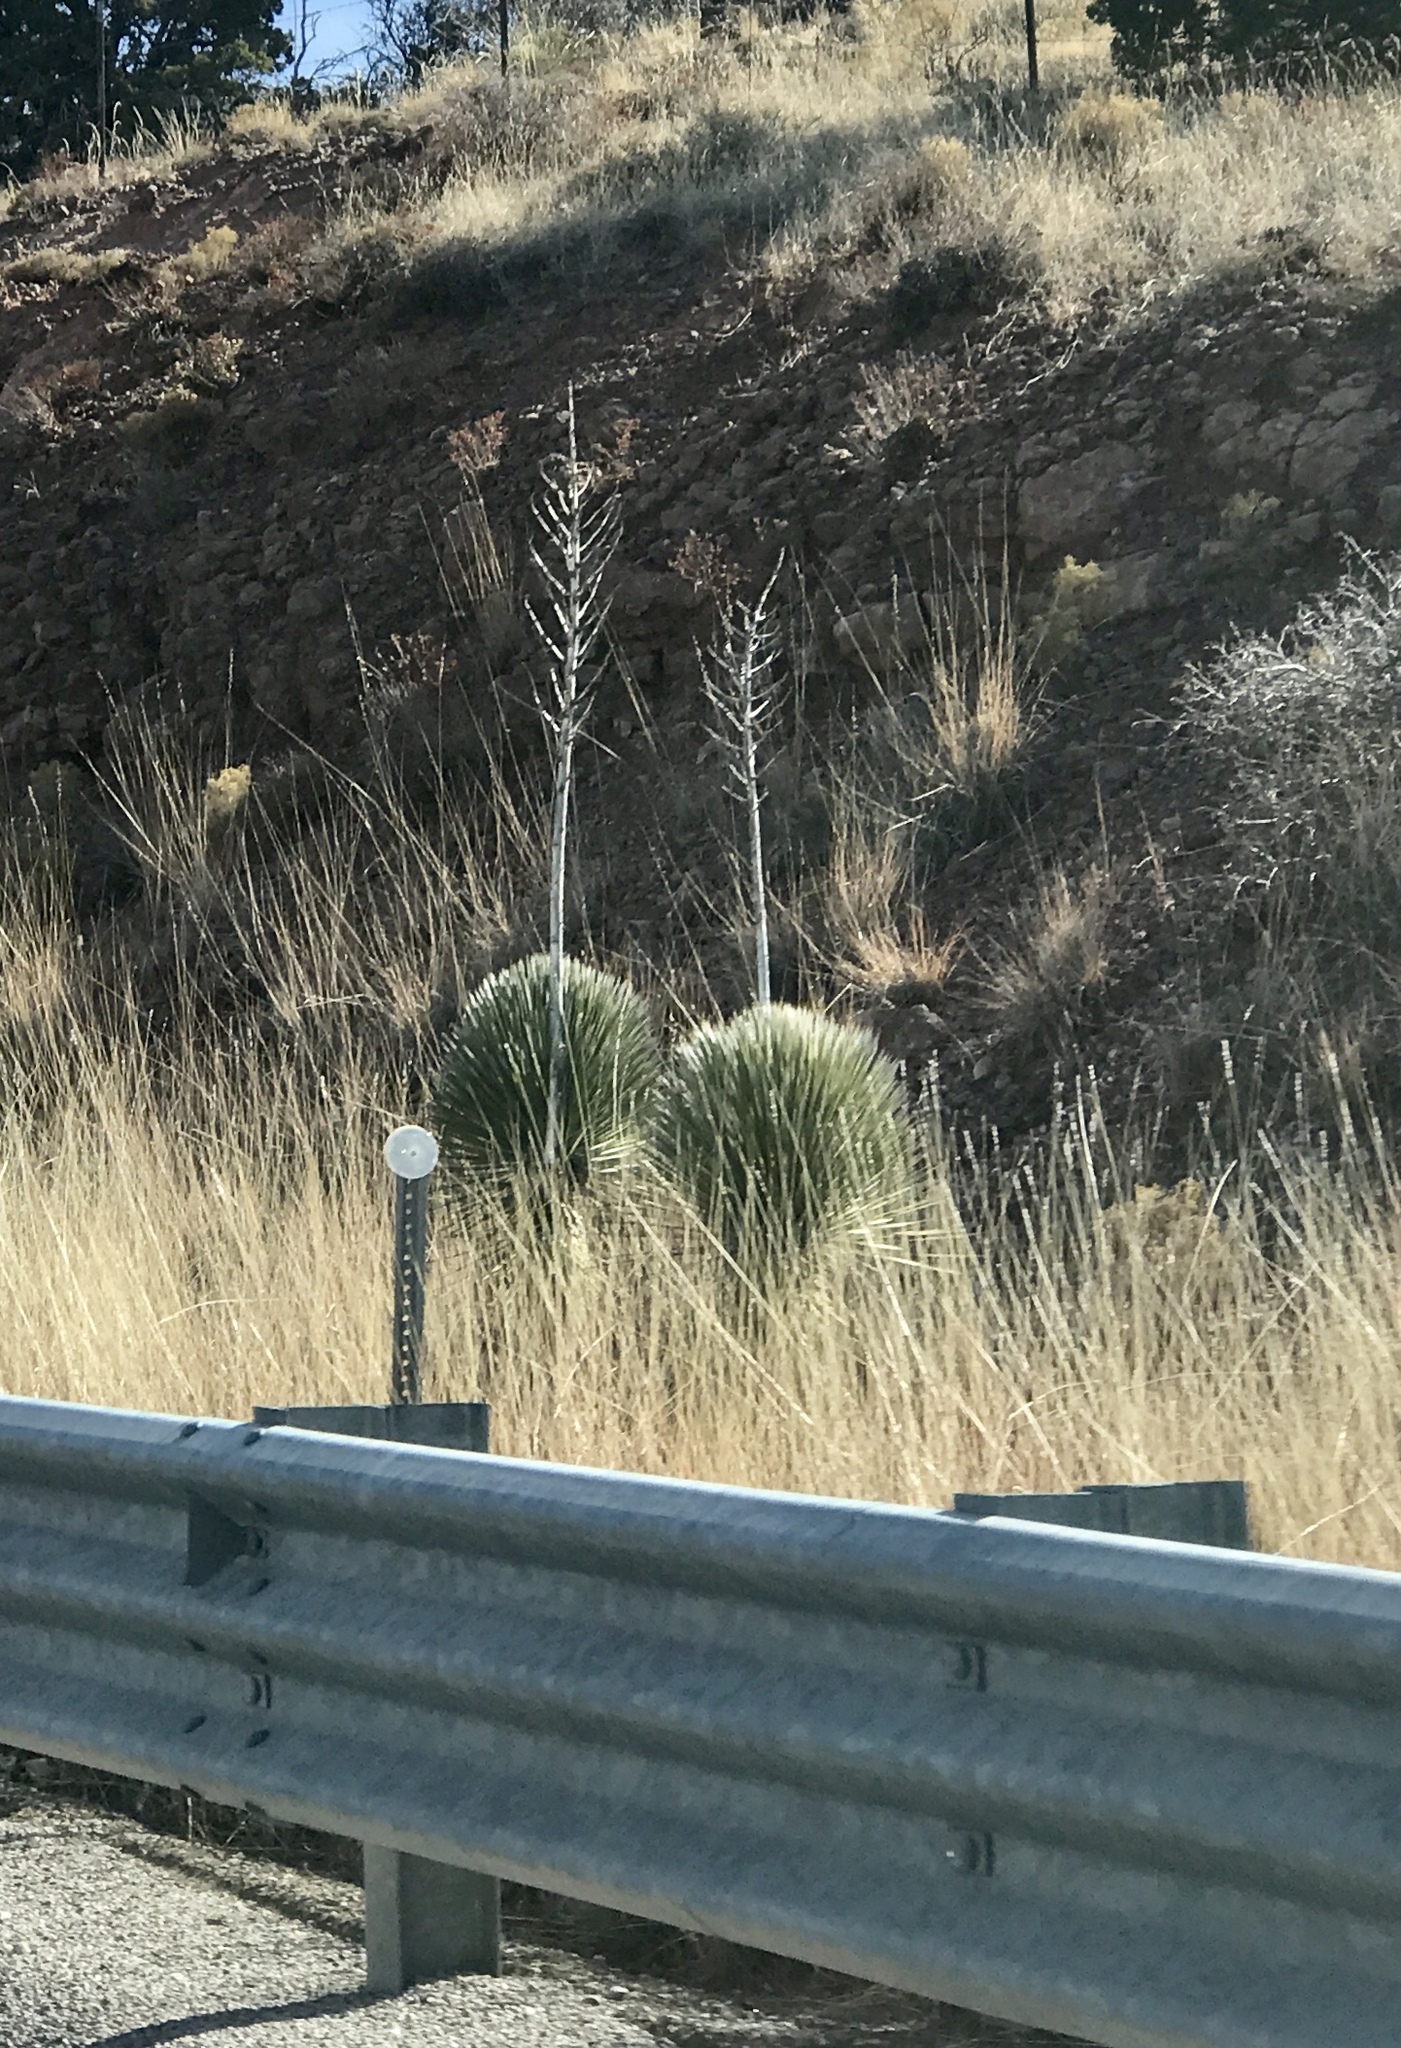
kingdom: Plantae
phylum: Tracheophyta
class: Liliopsida
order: Asparagales
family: Asparagaceae
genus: Yucca
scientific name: Yucca elata
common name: Palmella
